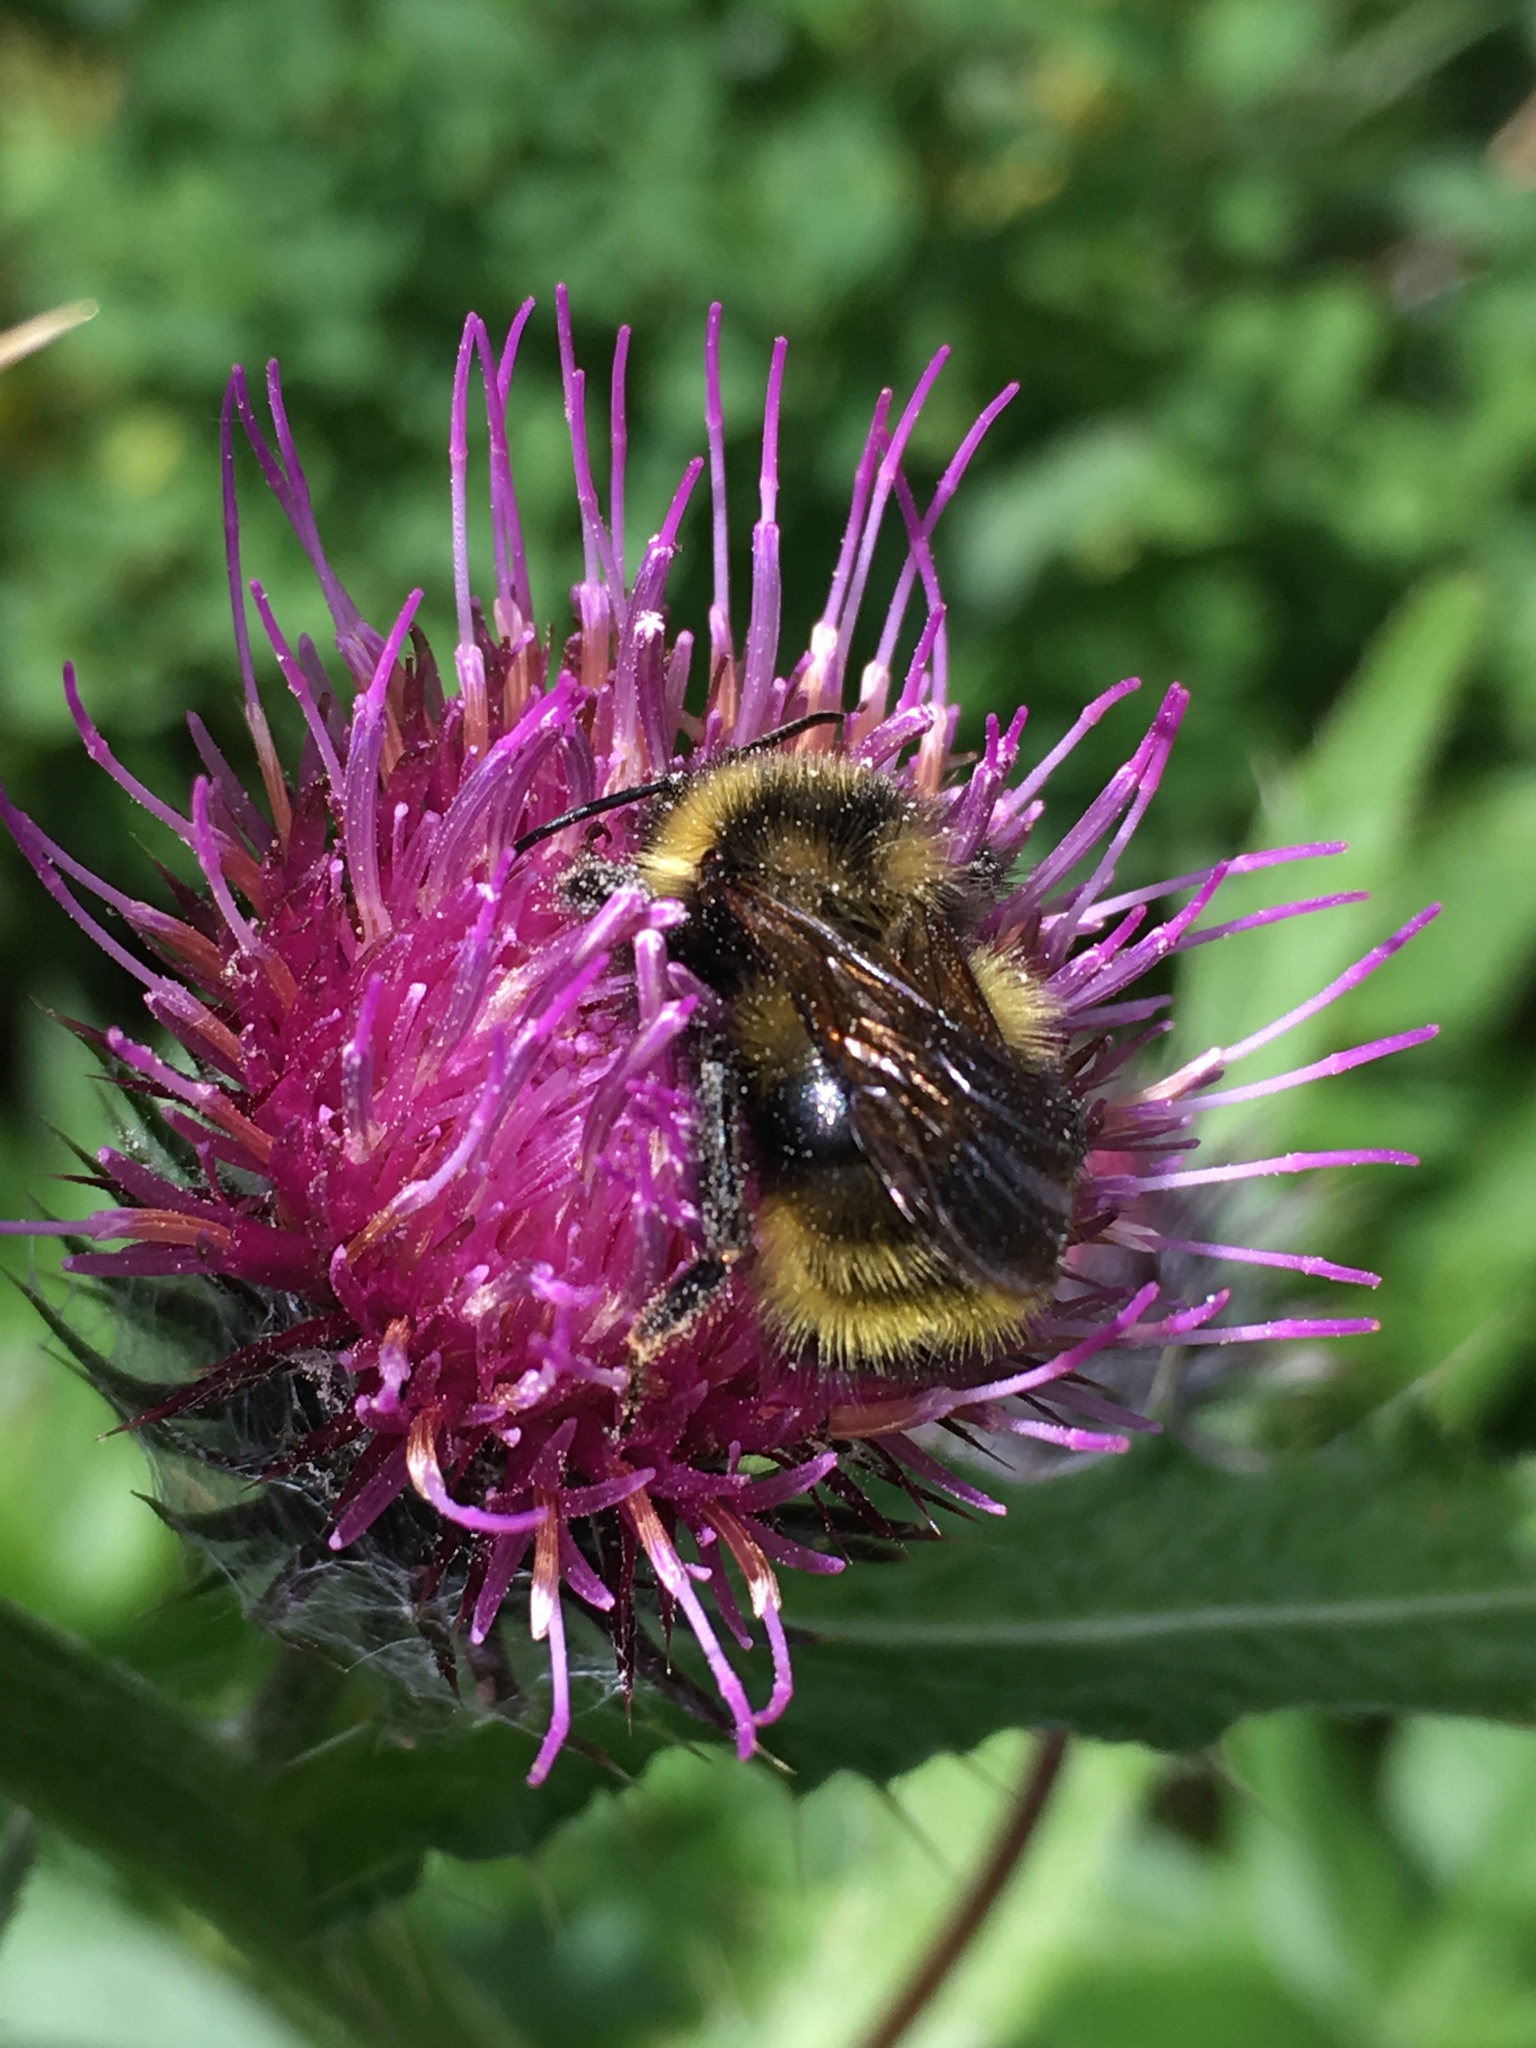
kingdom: Animalia
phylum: Arthropoda
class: Insecta
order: Hymenoptera
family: Apidae
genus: Bombus
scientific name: Bombus vancouverensis
